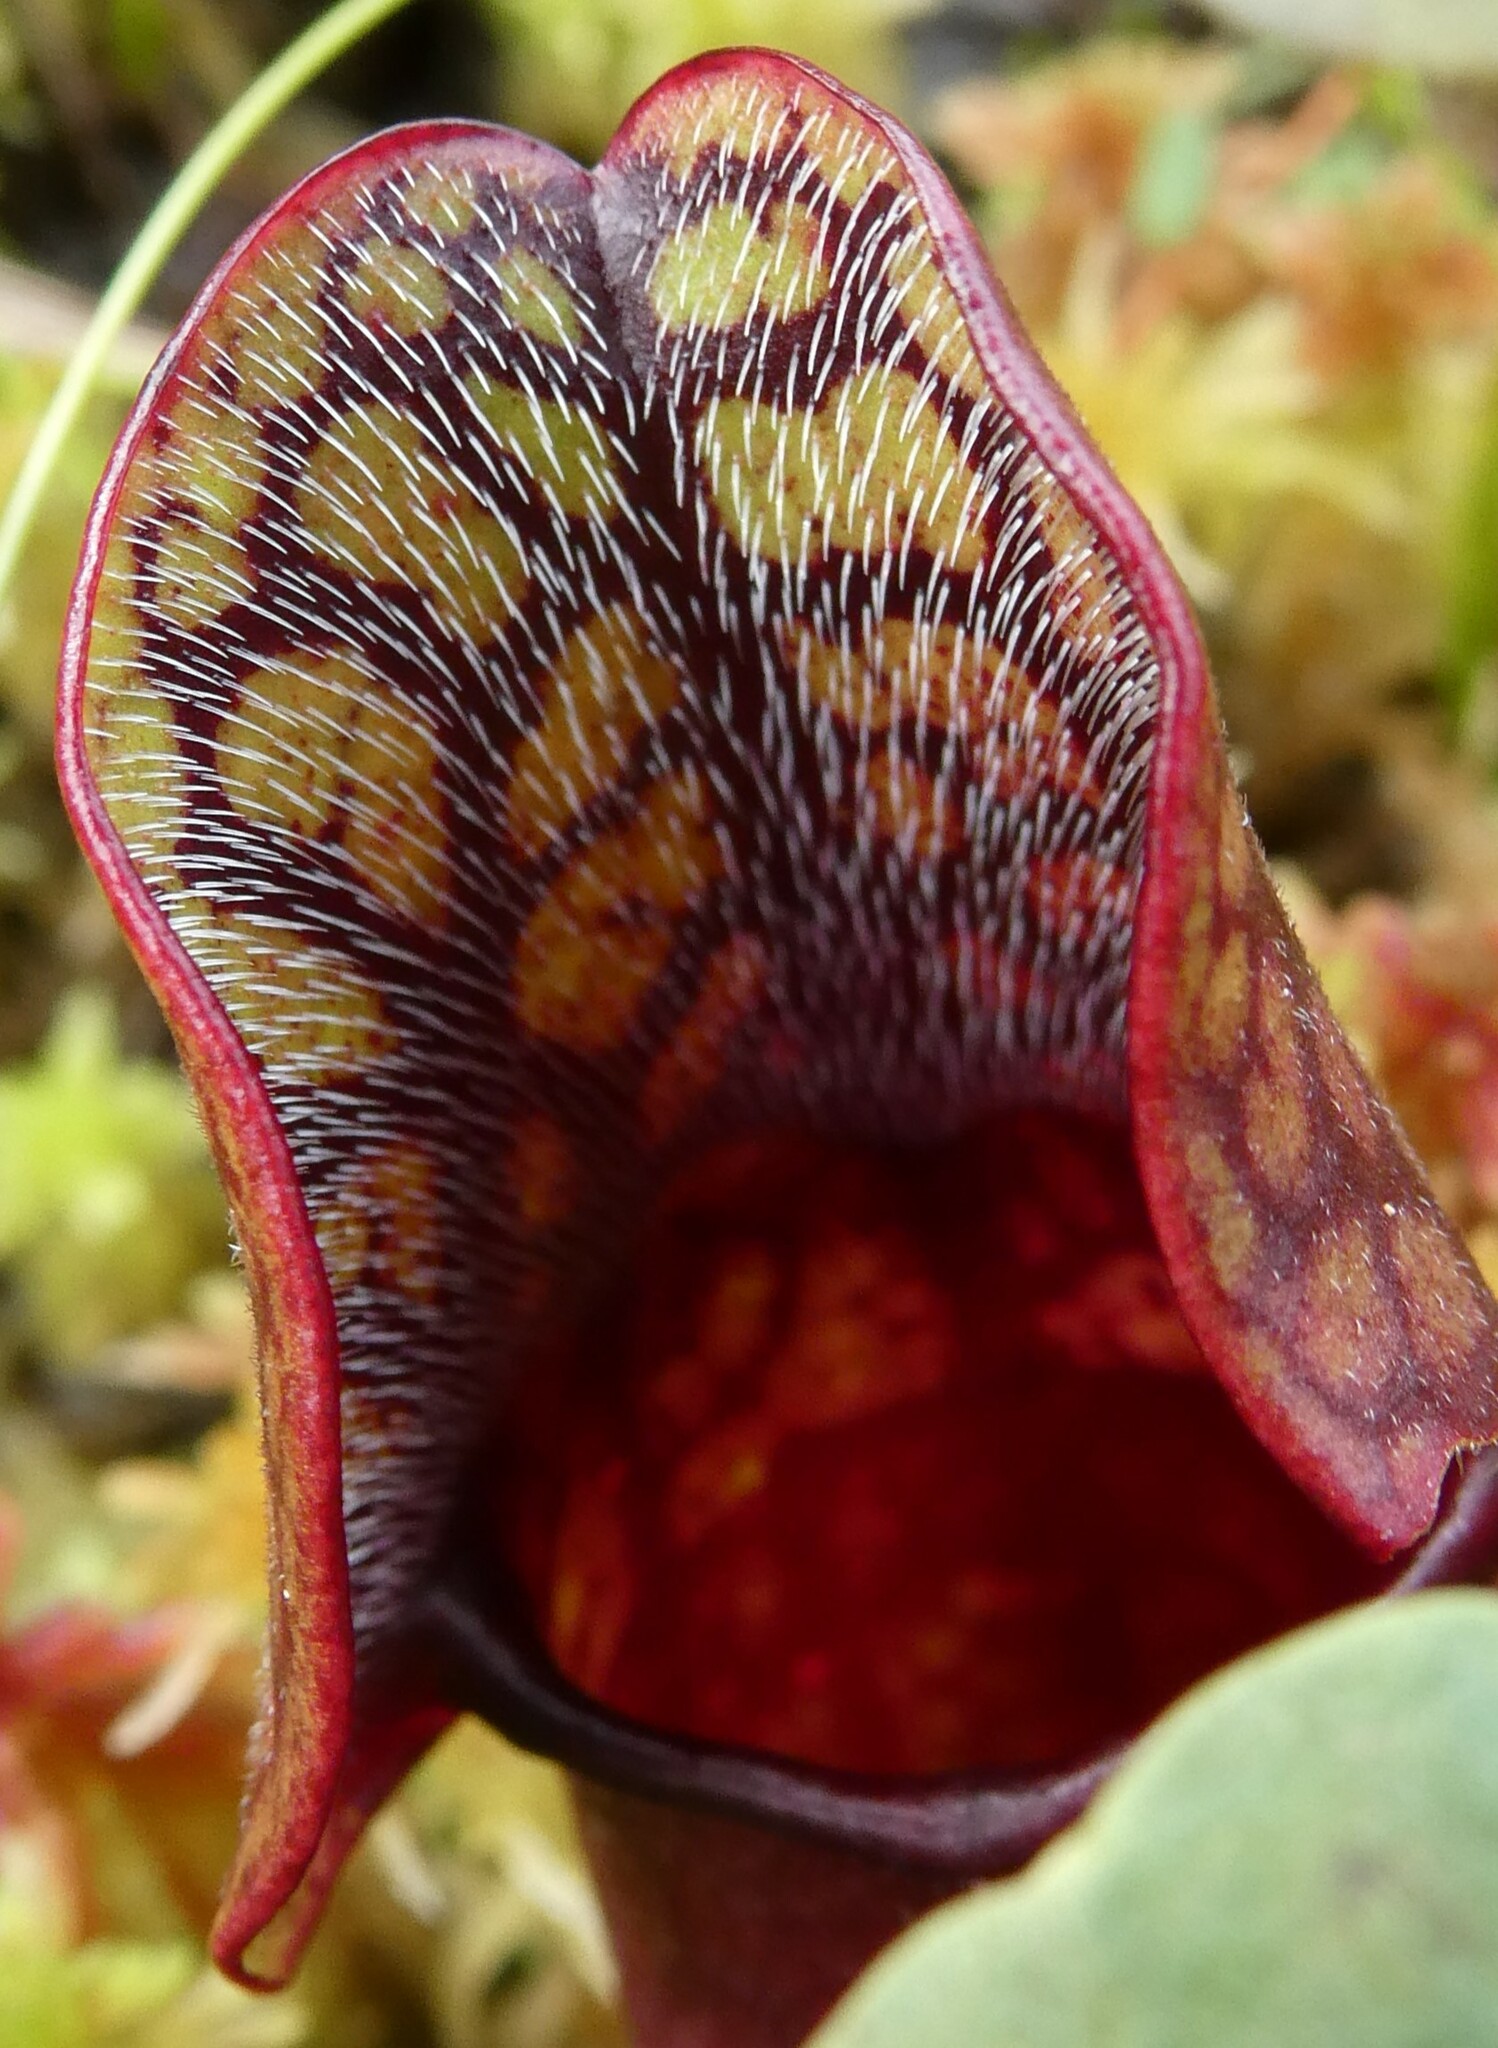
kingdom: Plantae
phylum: Tracheophyta
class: Magnoliopsida
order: Ericales
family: Sarraceniaceae
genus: Sarracenia
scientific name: Sarracenia purpurea
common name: Pitcherplant
